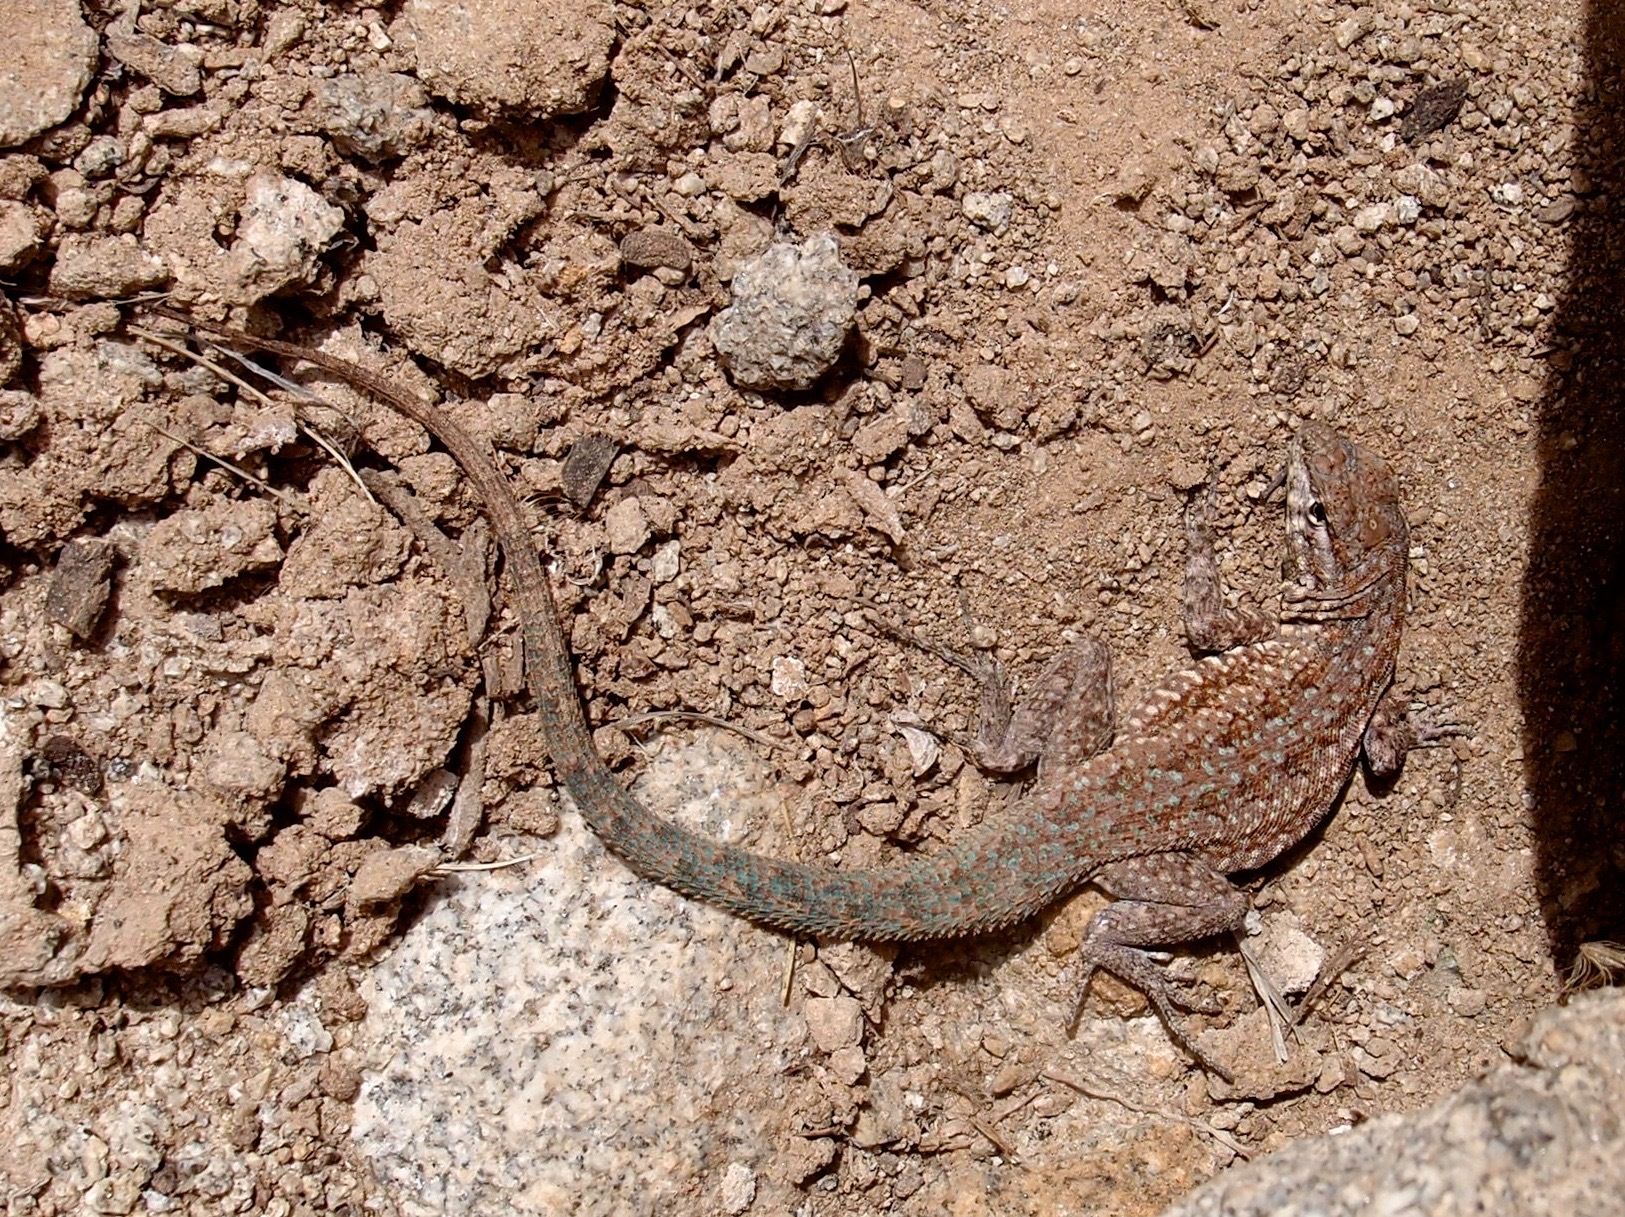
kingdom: Animalia
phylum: Chordata
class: Squamata
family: Phrynosomatidae
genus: Uta
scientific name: Uta stansburiana
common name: Side-blotched lizard
